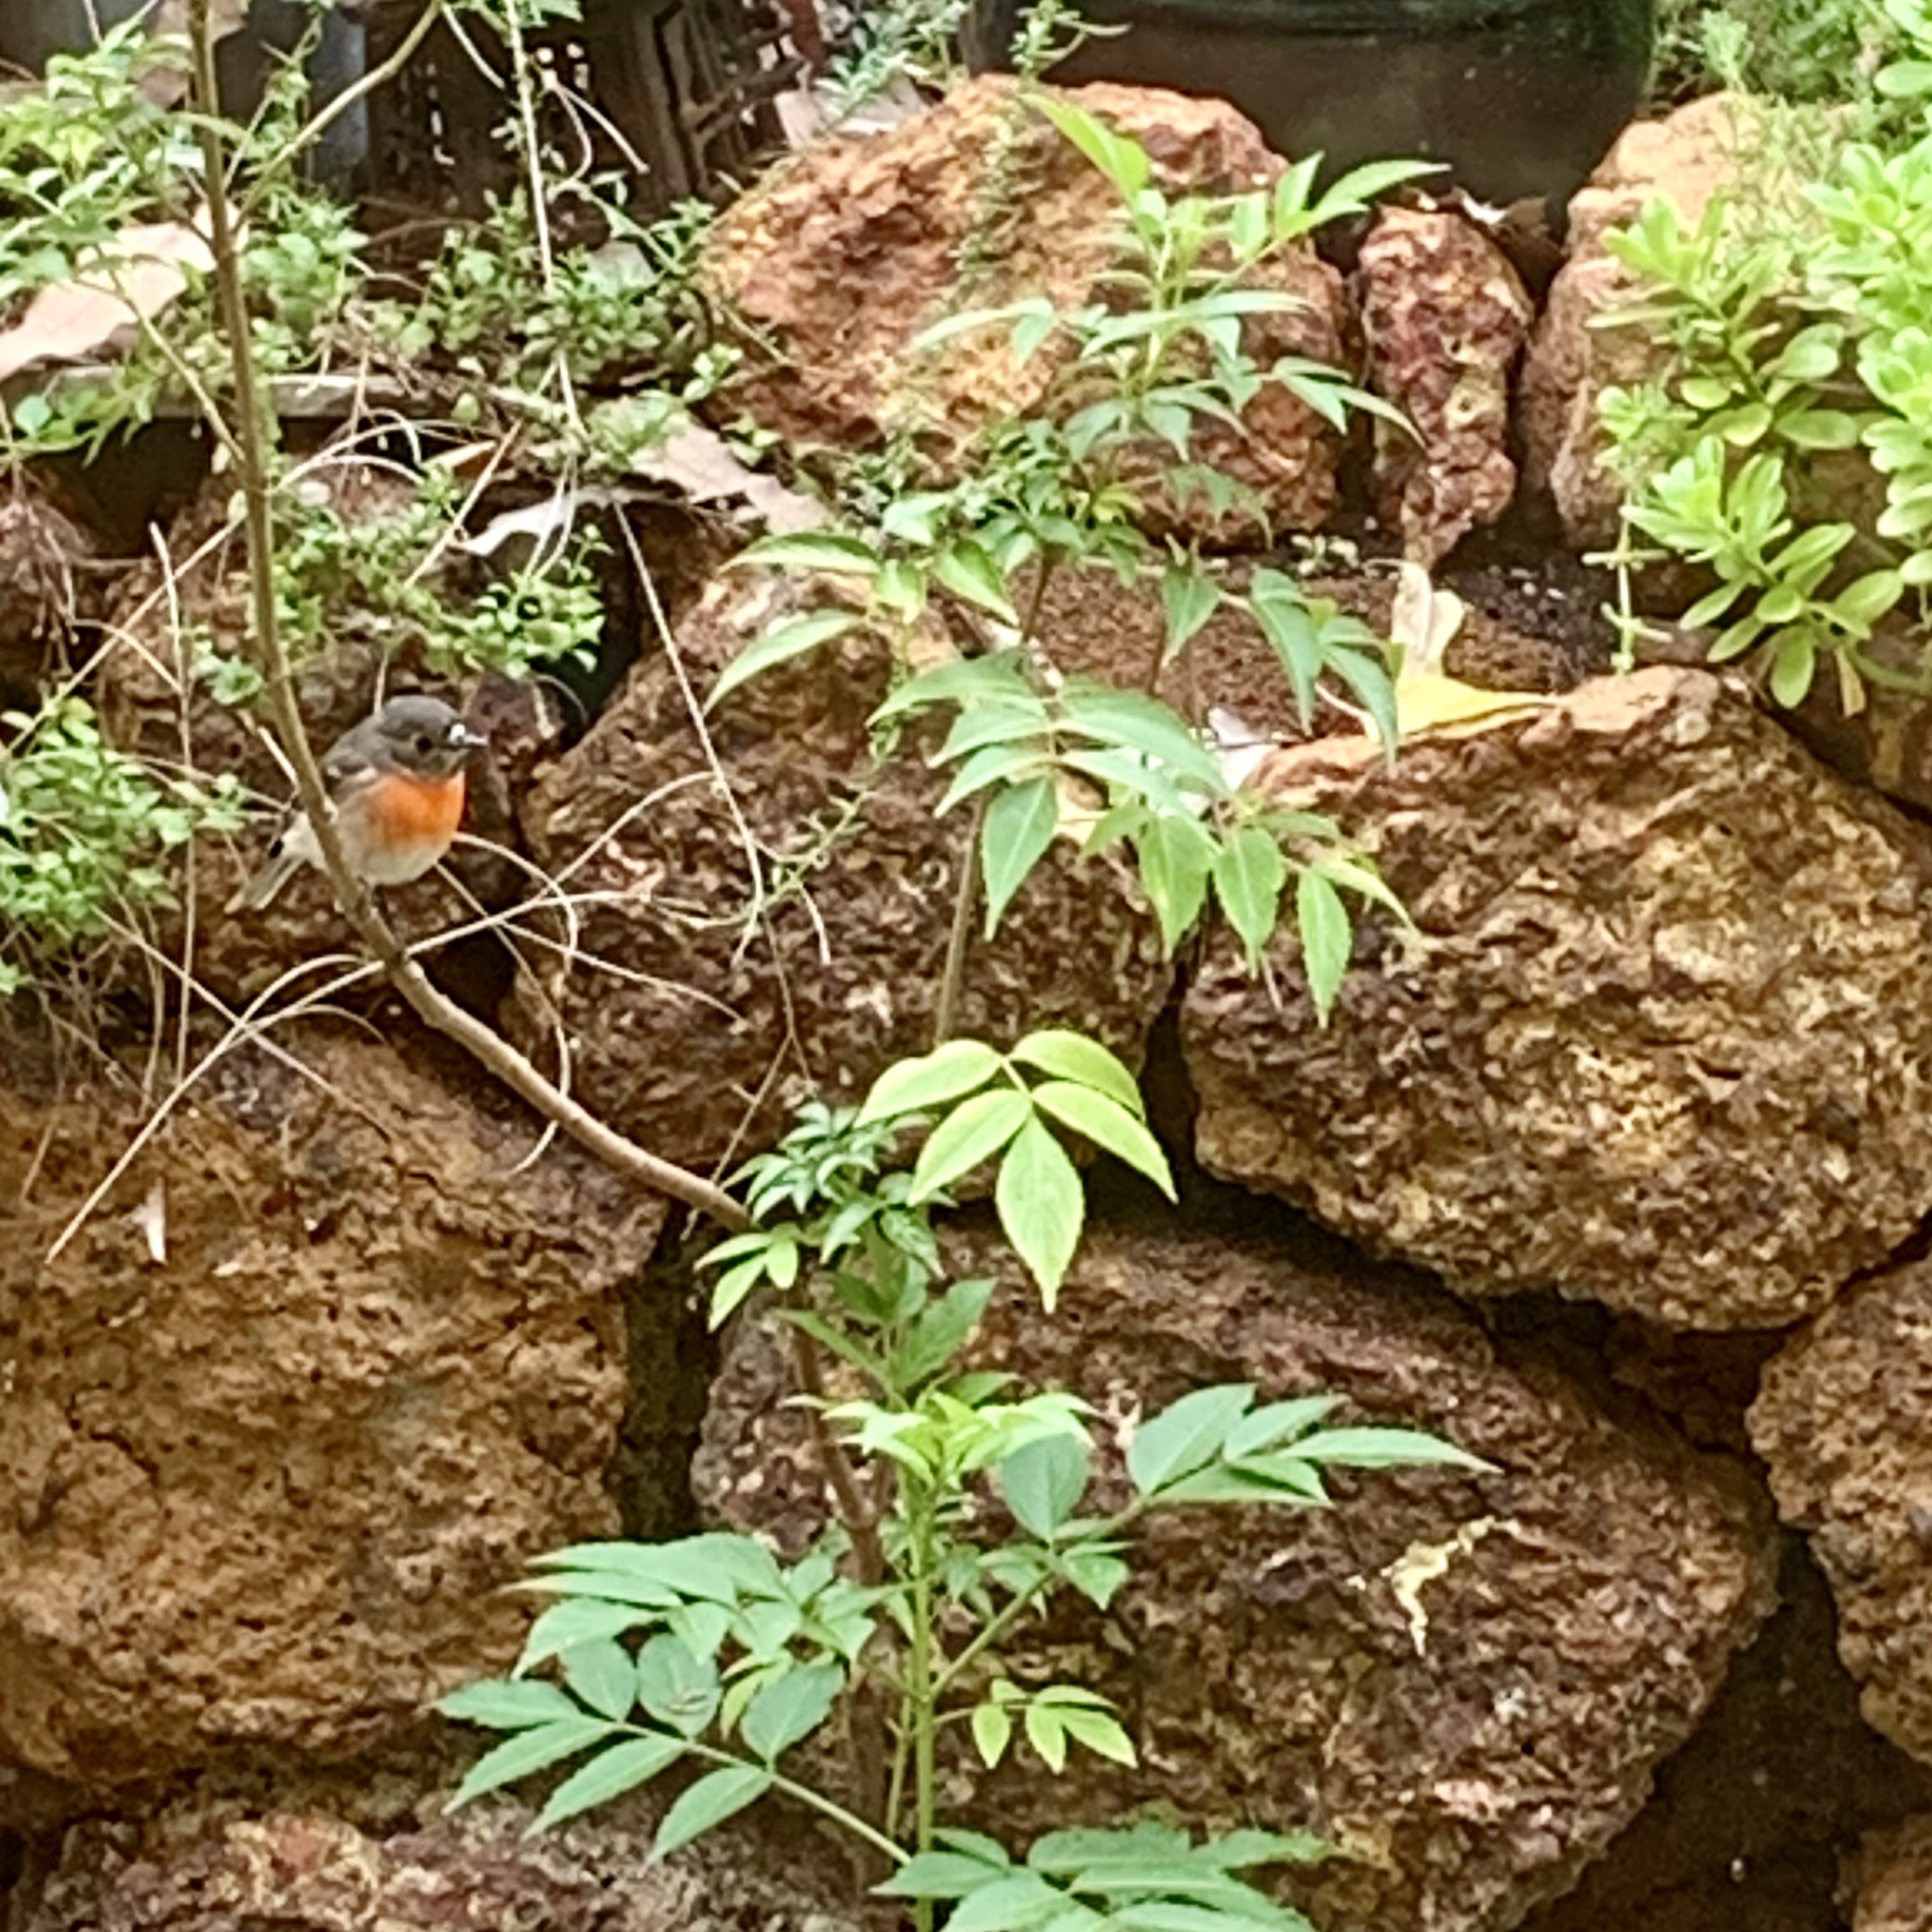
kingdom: Animalia
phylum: Chordata
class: Aves
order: Passeriformes
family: Petroicidae
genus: Petroica
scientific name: Petroica boodang
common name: Scarlet robin
